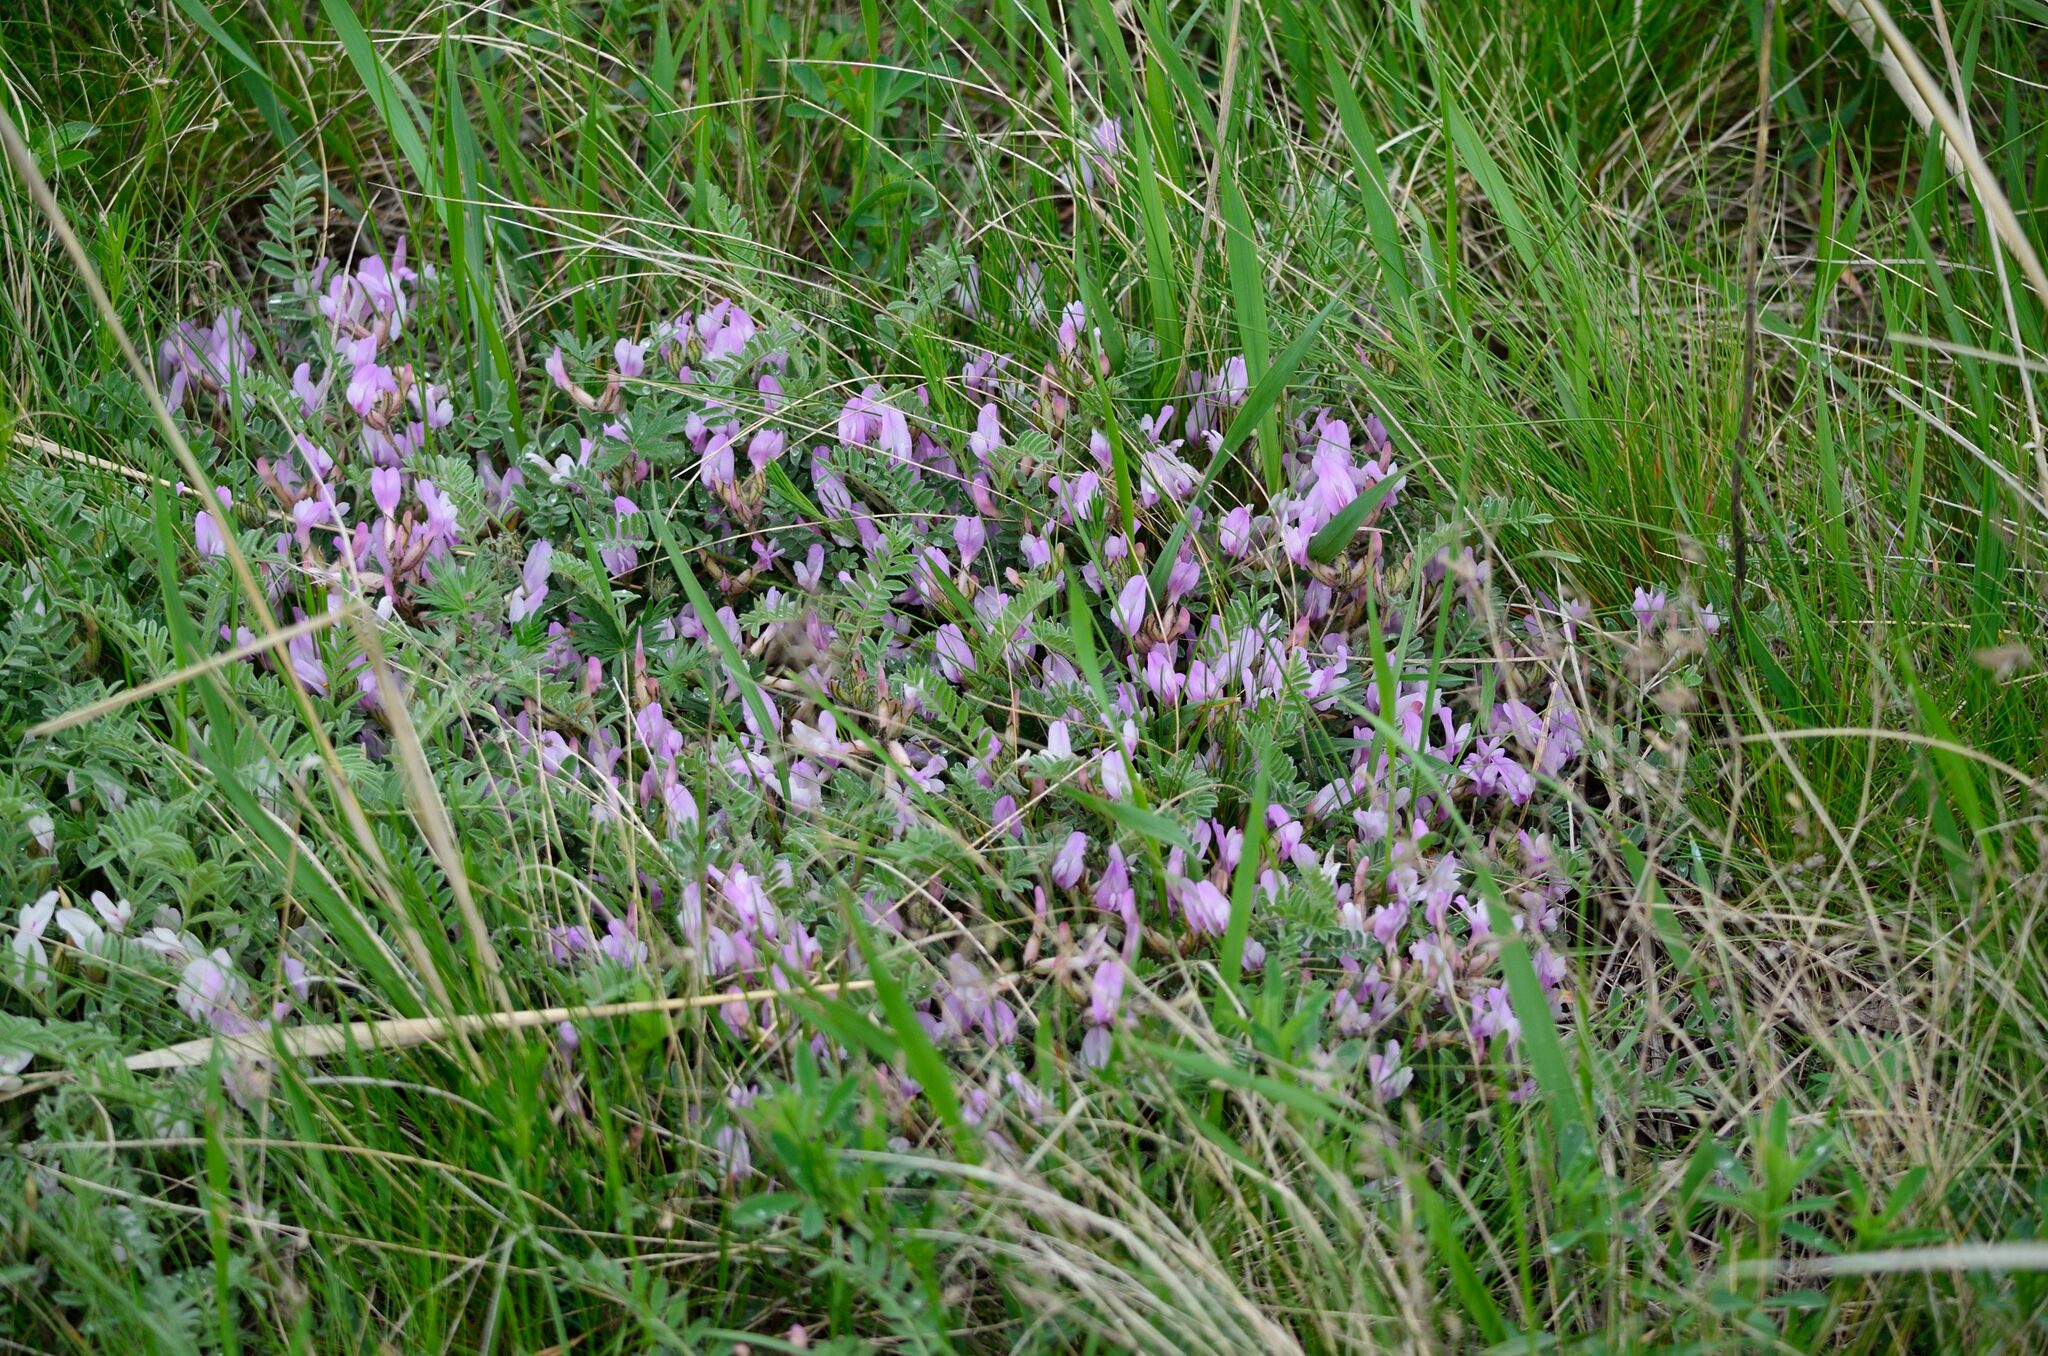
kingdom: Plantae
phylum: Tracheophyta
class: Magnoliopsida
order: Fabales
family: Fabaceae
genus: Astragalus
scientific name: Astragalus testiculatus
